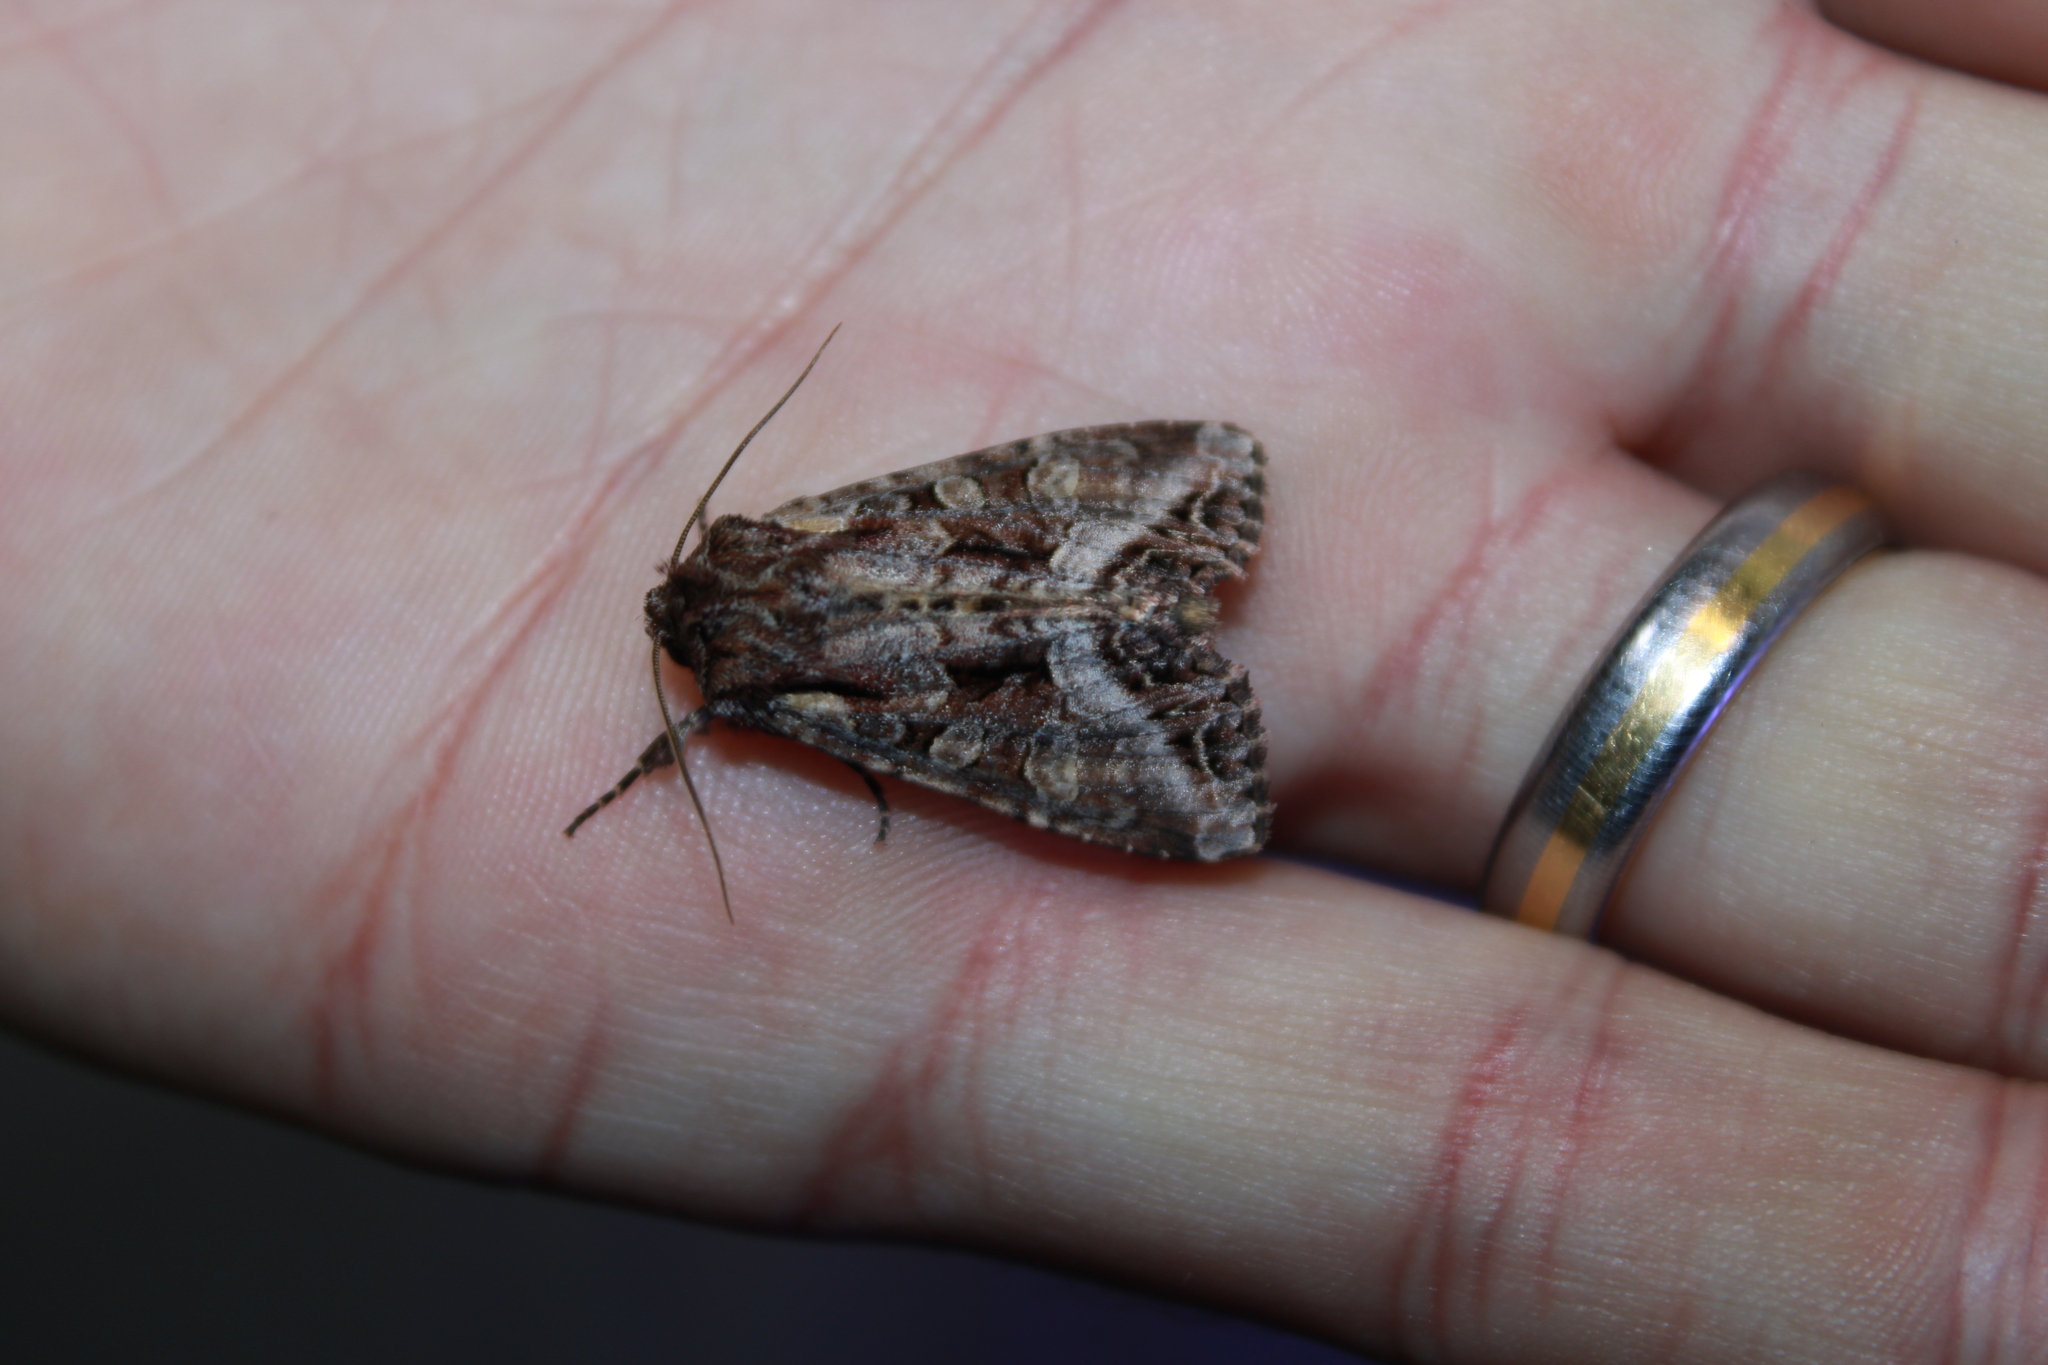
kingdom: Animalia
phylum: Arthropoda
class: Insecta
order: Lepidoptera
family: Noctuidae
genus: Lacanobia
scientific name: Lacanobia grandis
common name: Grand arches moth
